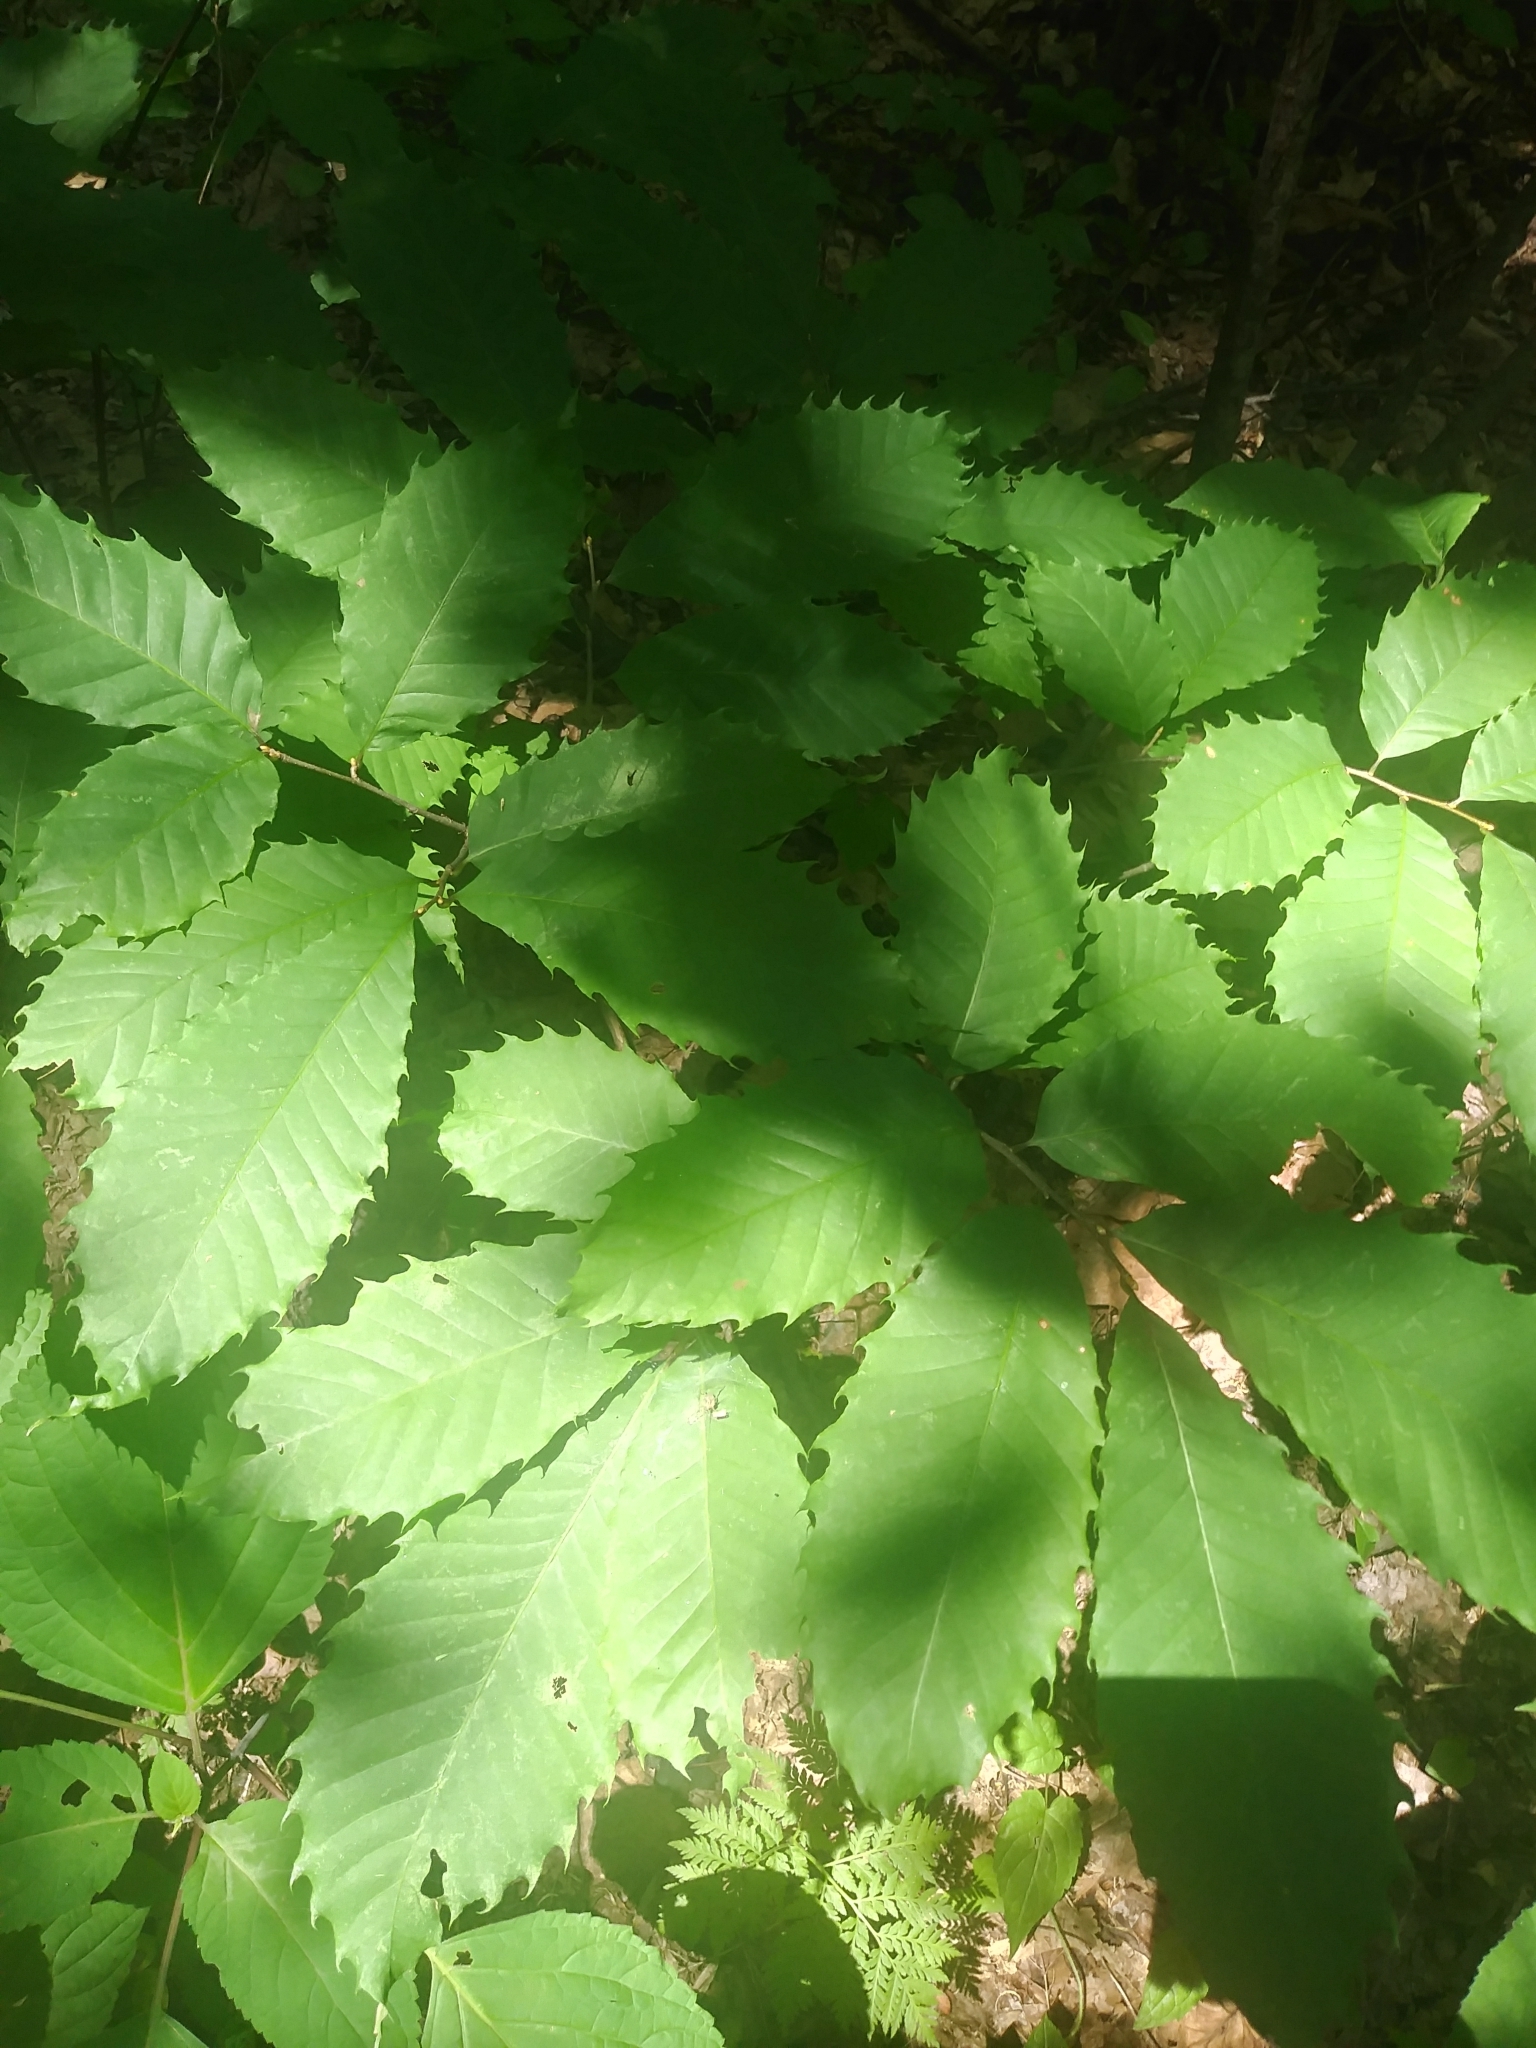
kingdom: Plantae
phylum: Tracheophyta
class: Magnoliopsida
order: Fagales
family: Fagaceae
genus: Castanea
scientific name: Castanea dentata
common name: American chestnut
